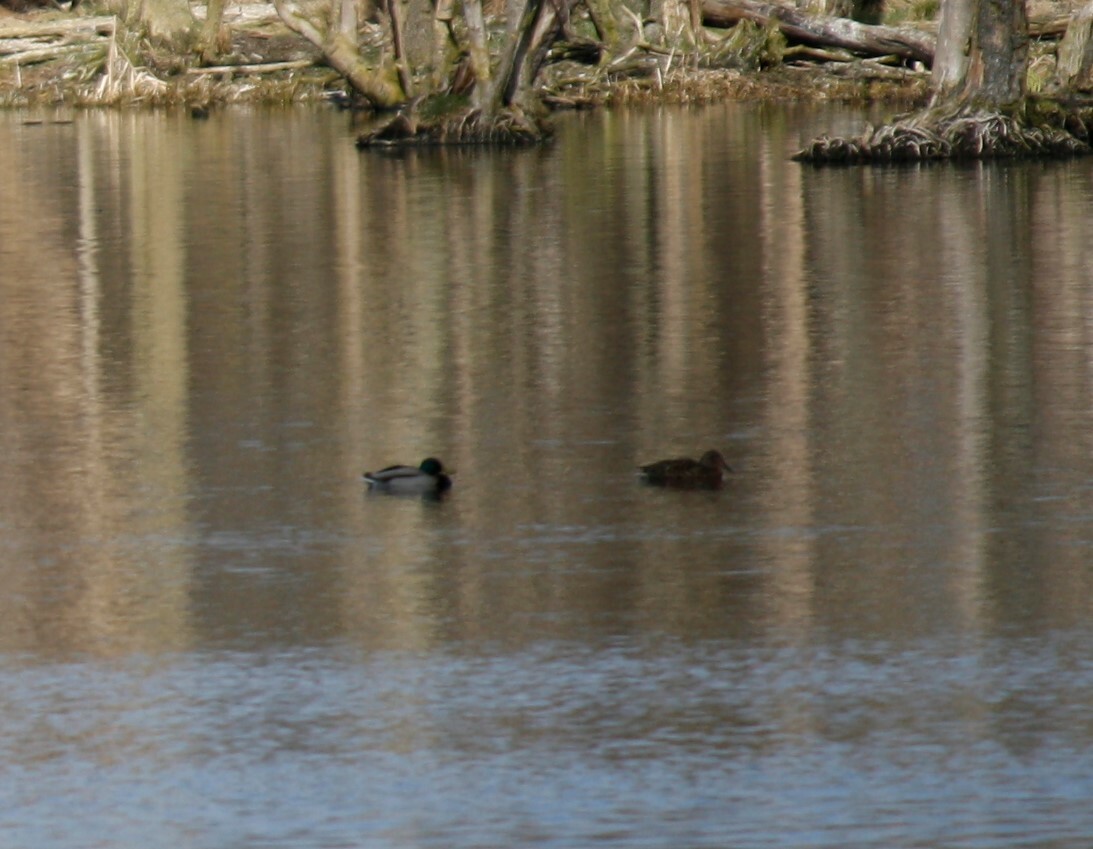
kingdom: Animalia
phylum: Chordata
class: Aves
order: Anseriformes
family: Anatidae
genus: Anas
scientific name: Anas platyrhynchos
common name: Mallard
